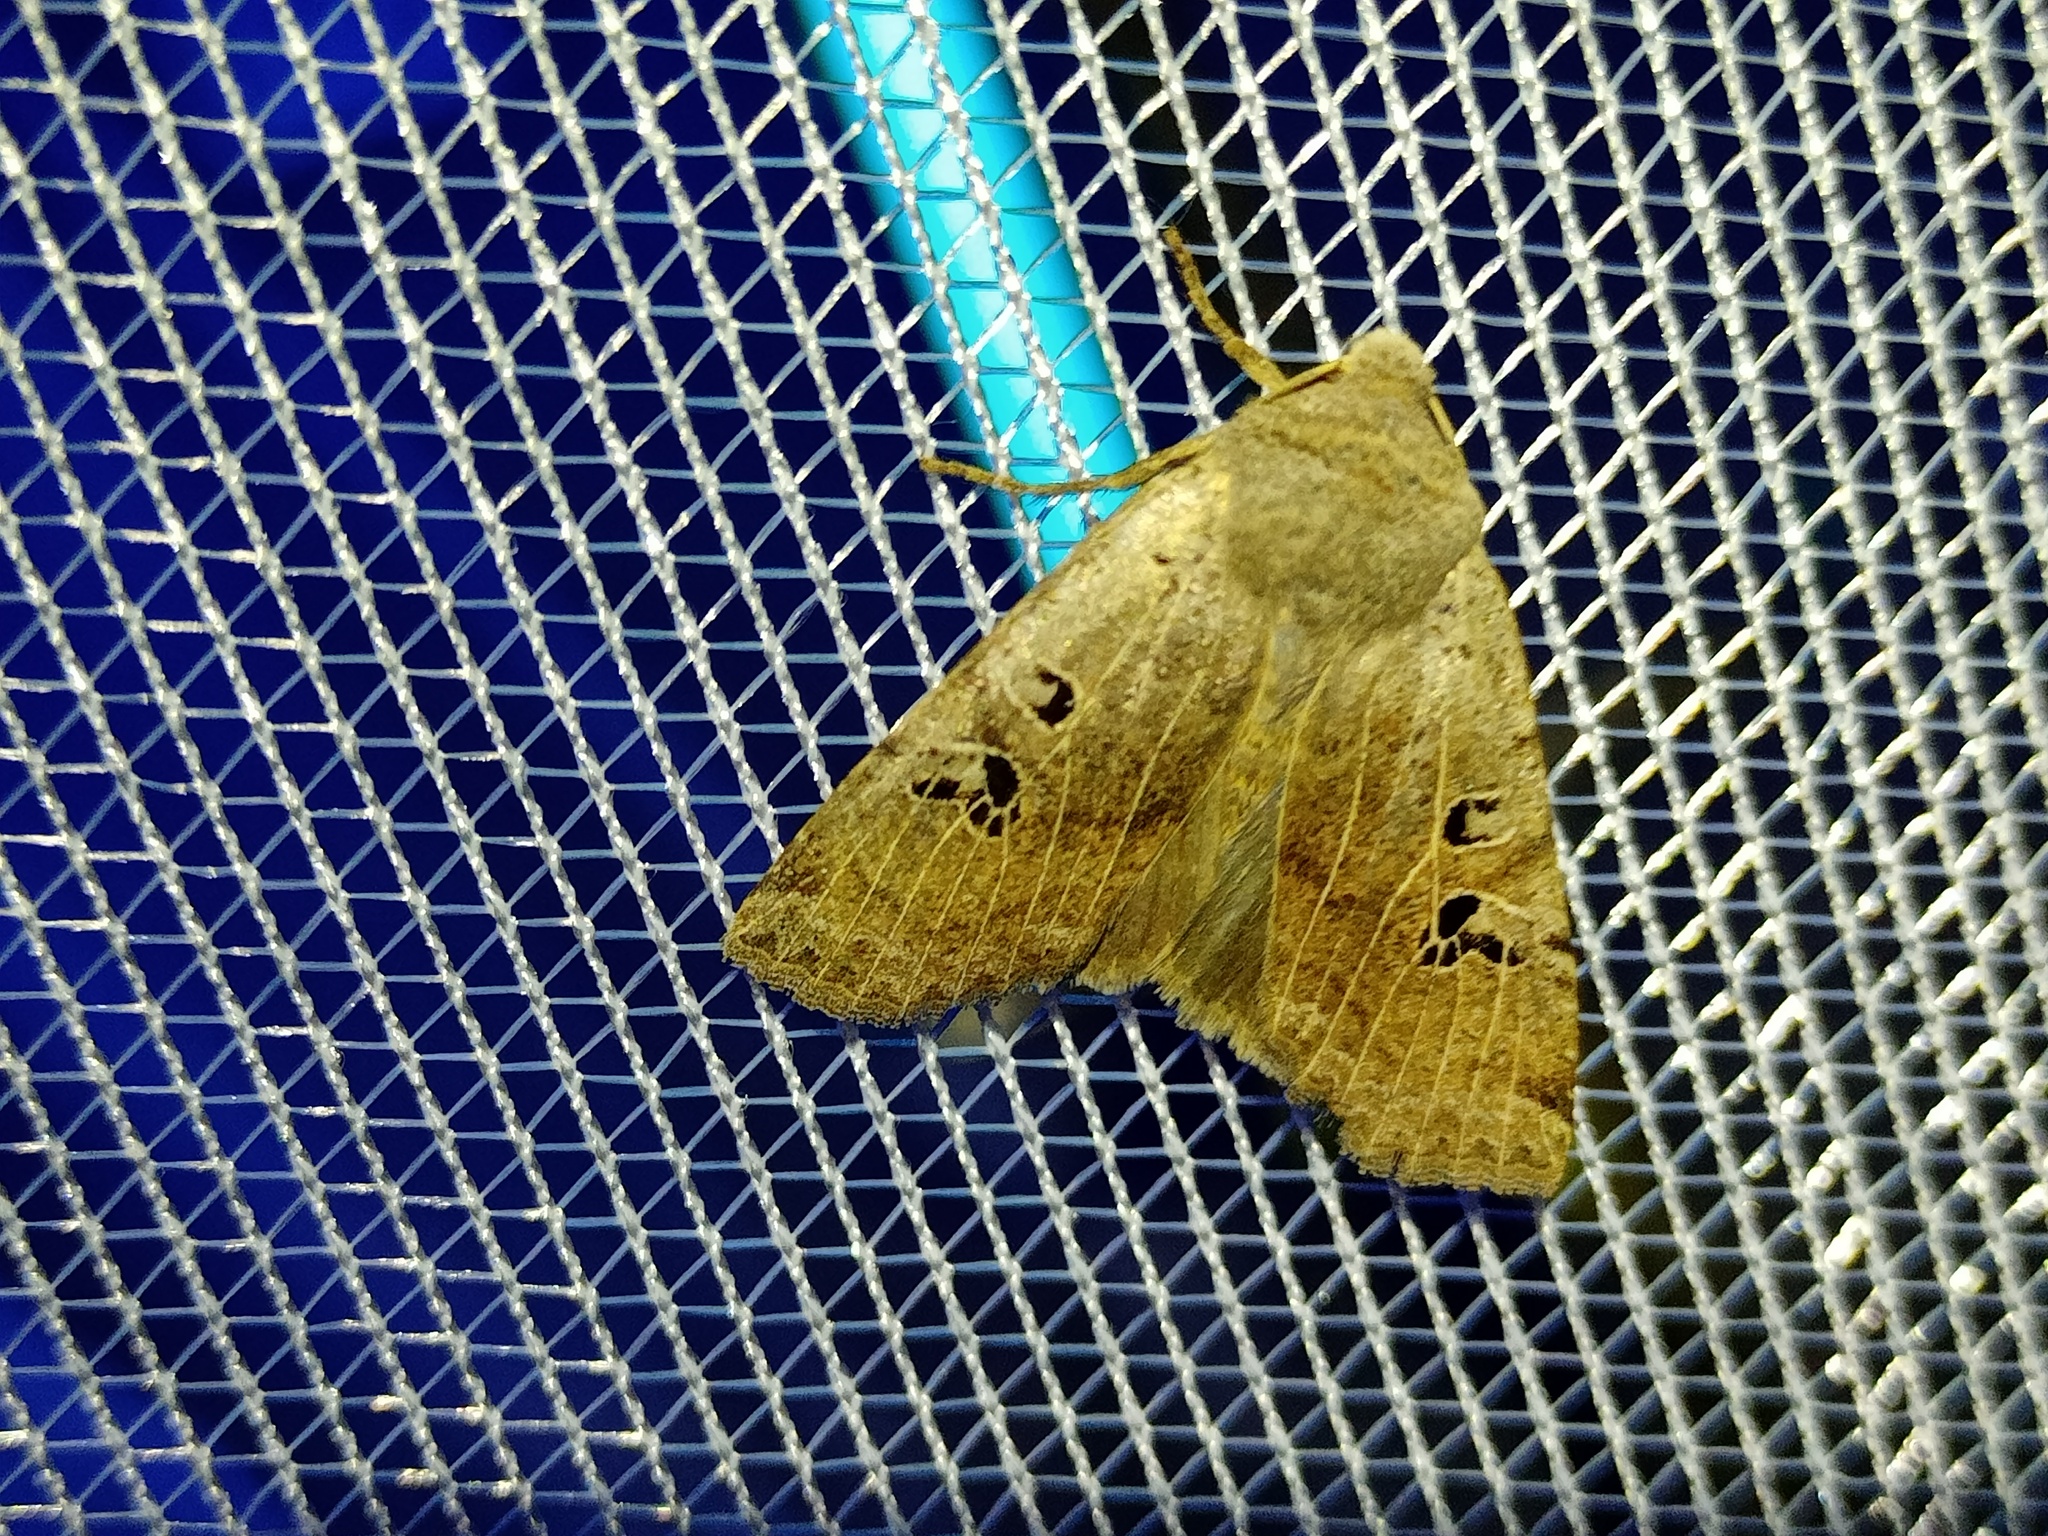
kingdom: Animalia
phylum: Arthropoda
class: Insecta
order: Lepidoptera
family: Noctuidae
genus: Conistra
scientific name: Conistra rubiginosa
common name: Black-spotted chestnut
